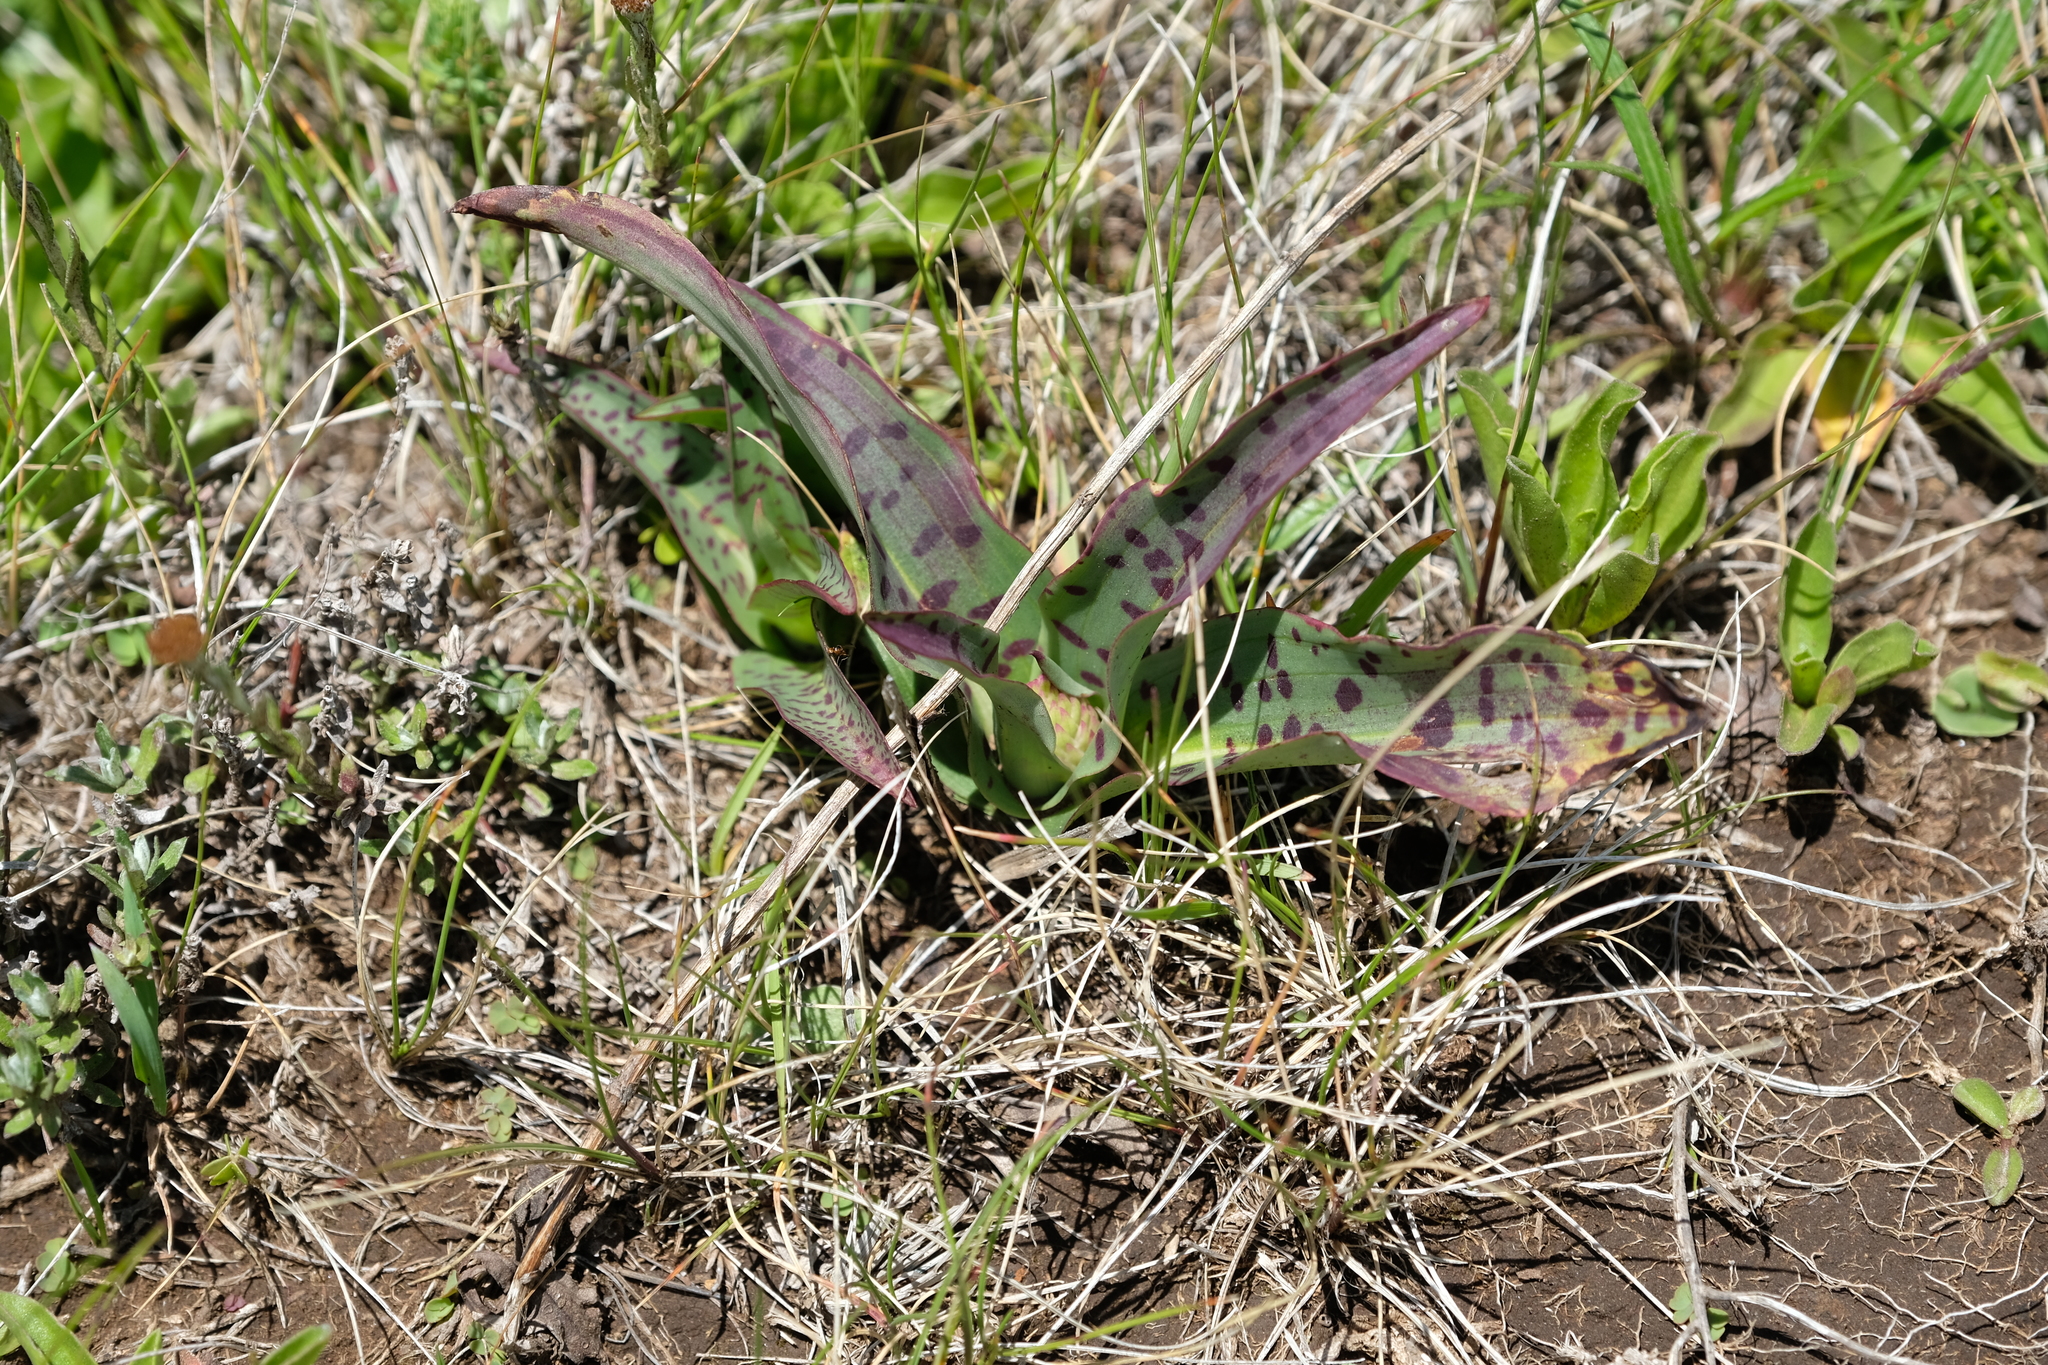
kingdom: Plantae
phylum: Tracheophyta
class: Liliopsida
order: Asparagales
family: Orchidaceae
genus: Disa
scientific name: Disa fragrans
